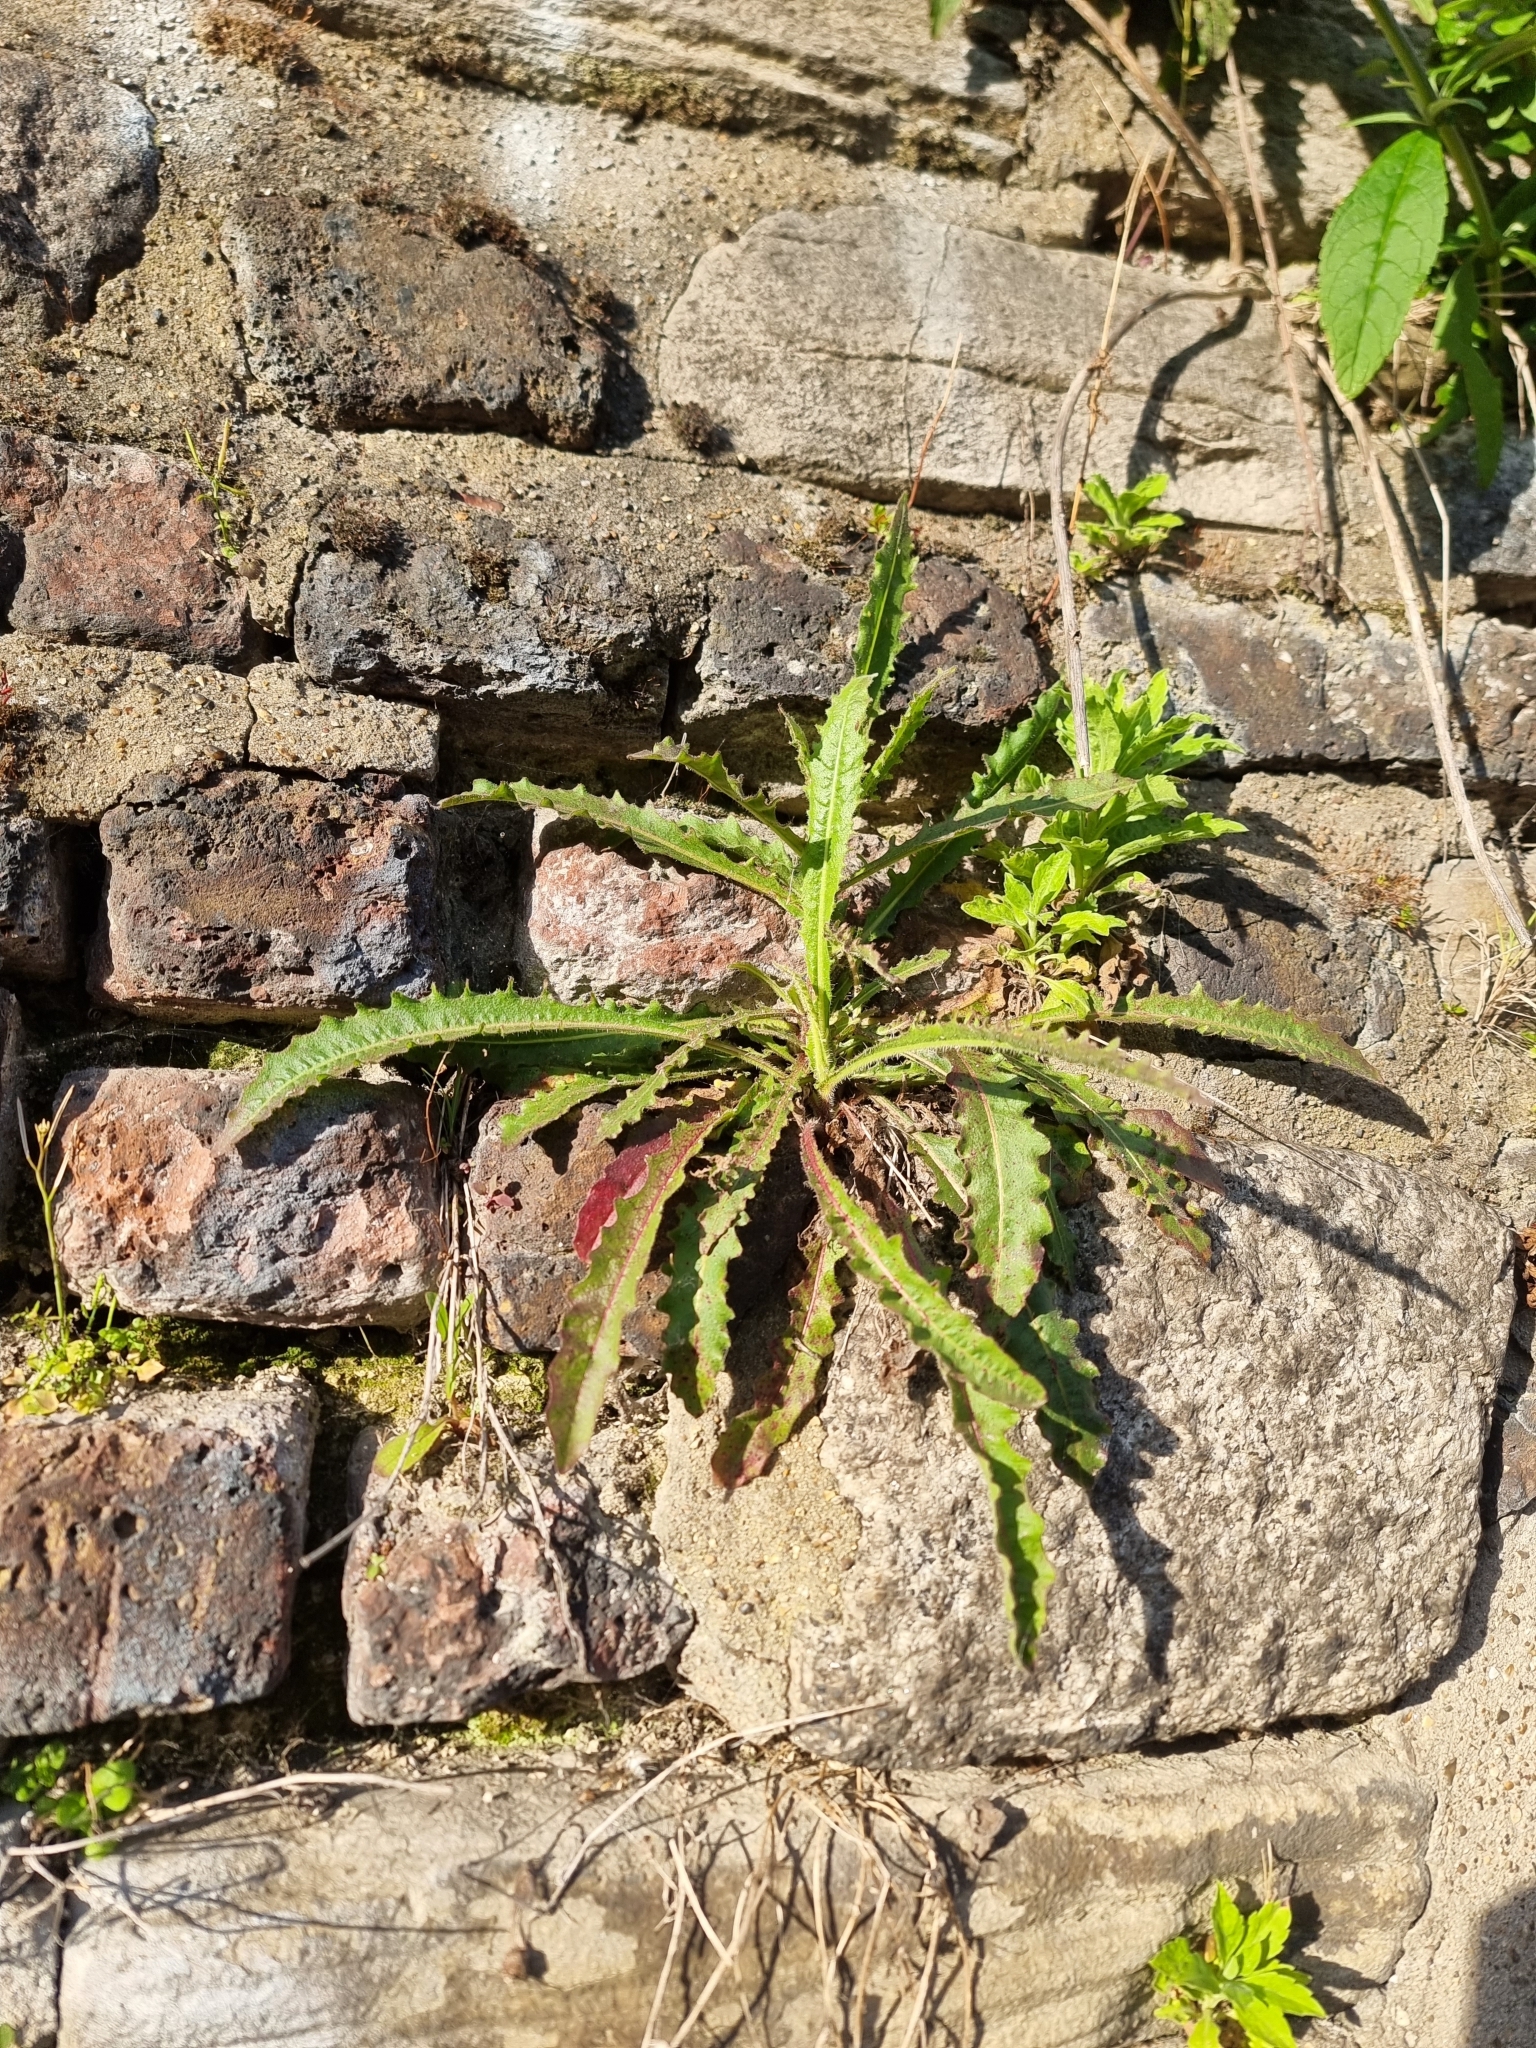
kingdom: Plantae
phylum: Tracheophyta
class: Magnoliopsida
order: Asterales
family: Asteraceae
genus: Picris
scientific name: Picris hieracioides
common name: Hawkweed oxtongue
